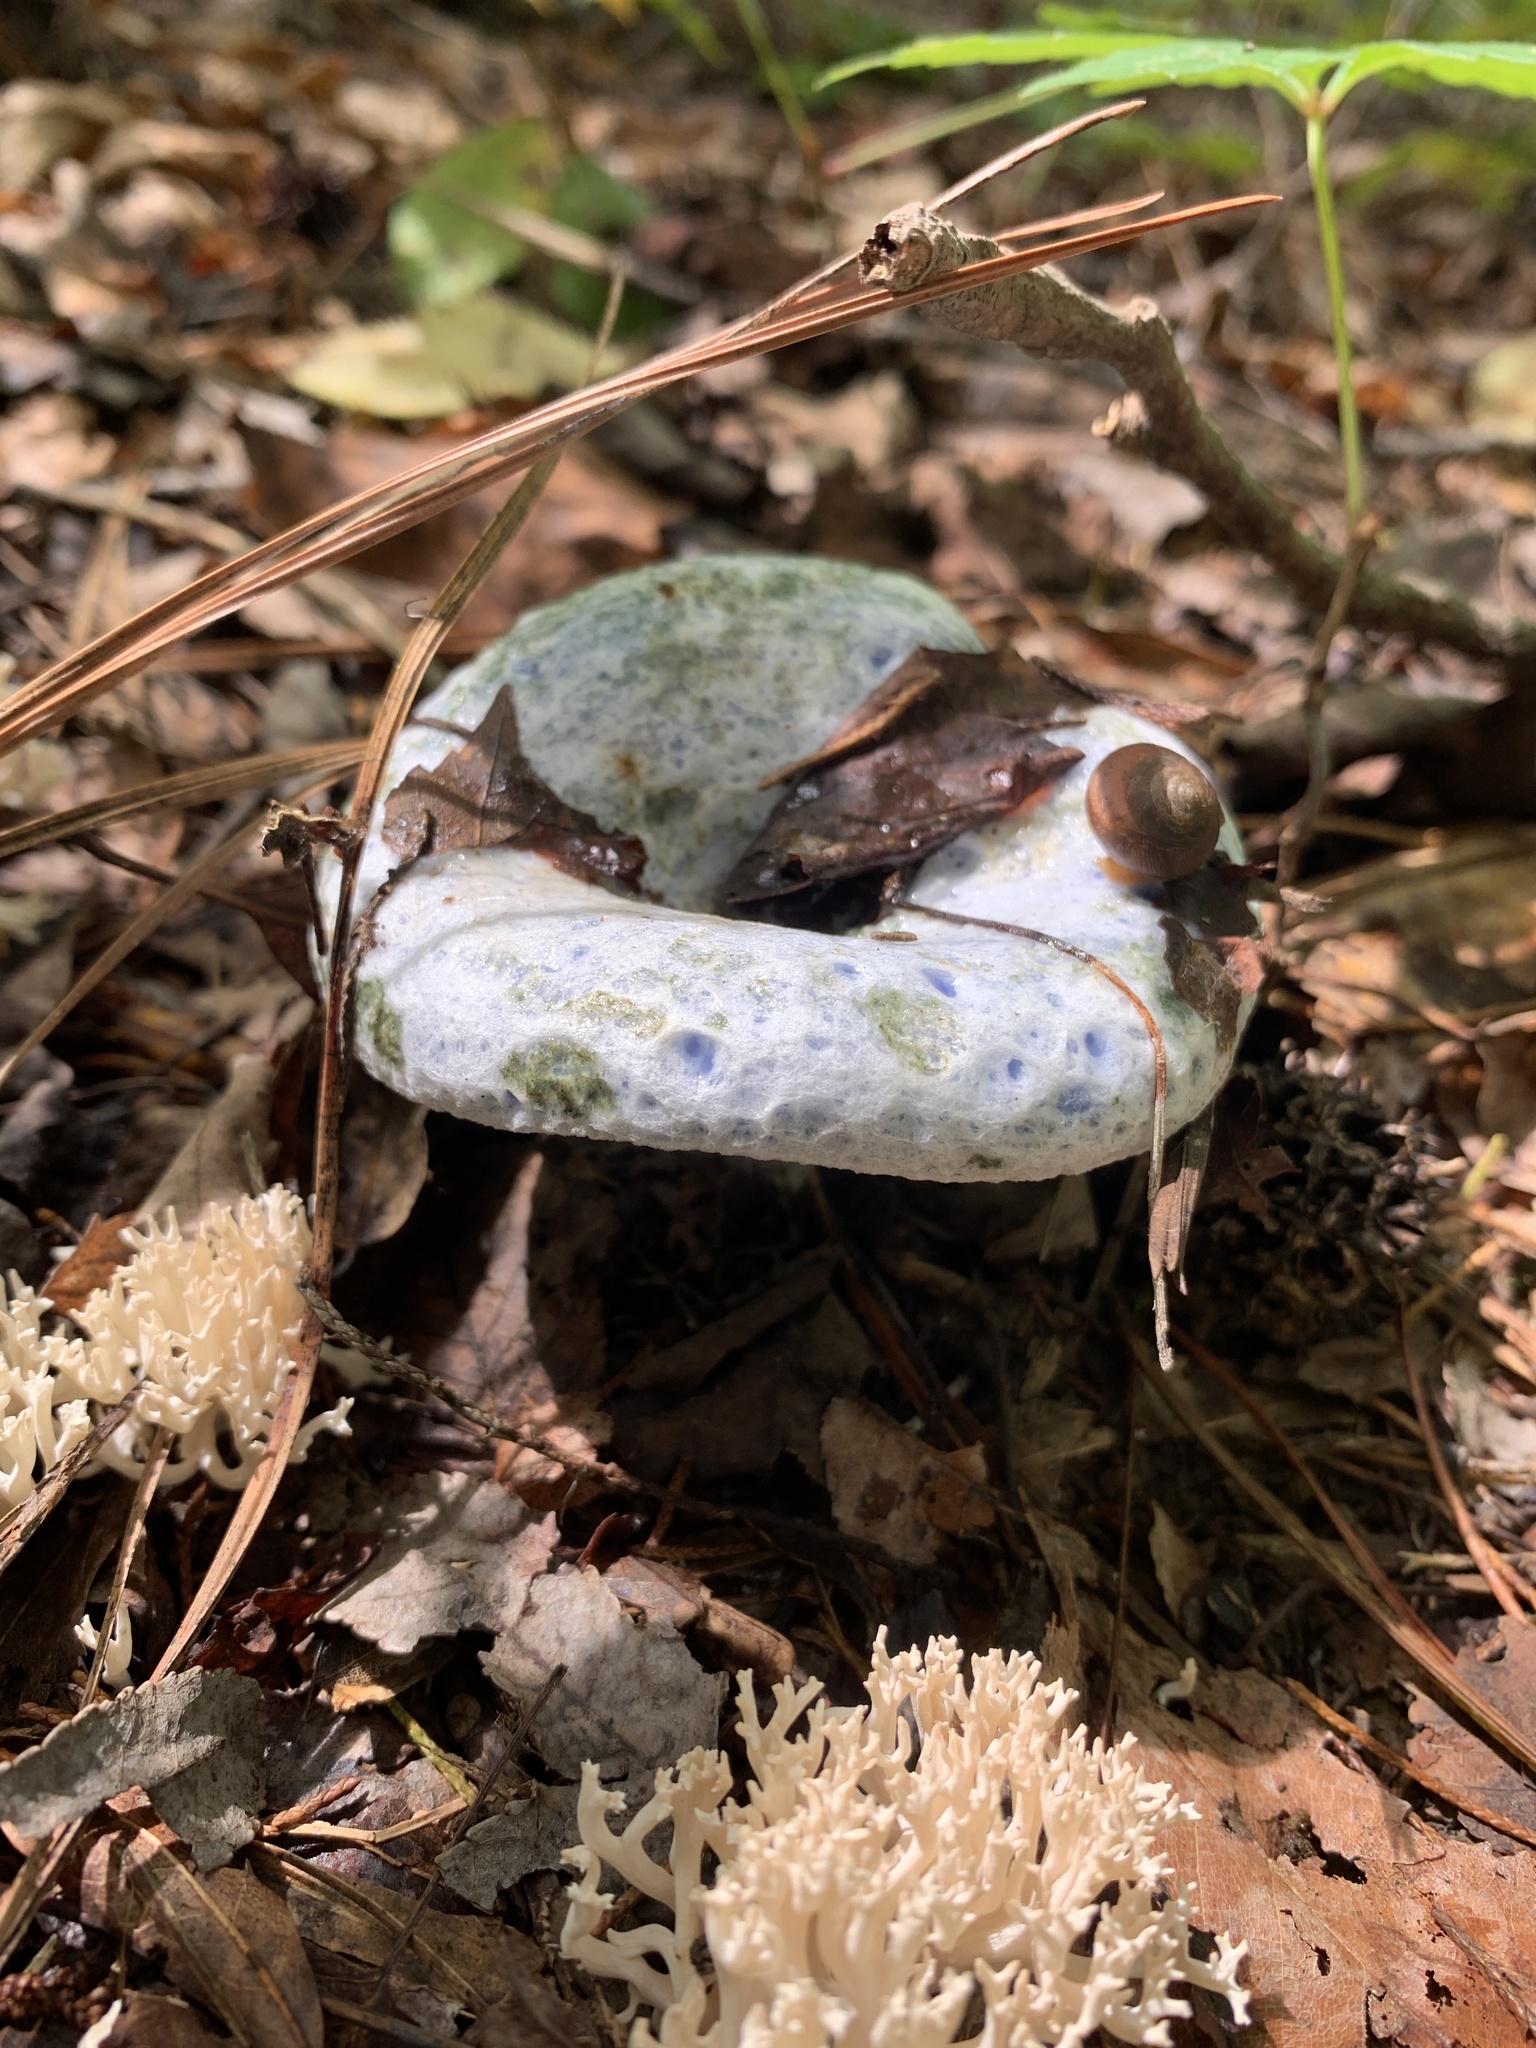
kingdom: Fungi
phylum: Basidiomycota
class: Agaricomycetes
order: Russulales
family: Russulaceae
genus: Lactarius
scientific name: Lactarius indigo
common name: Indigo milk cap
